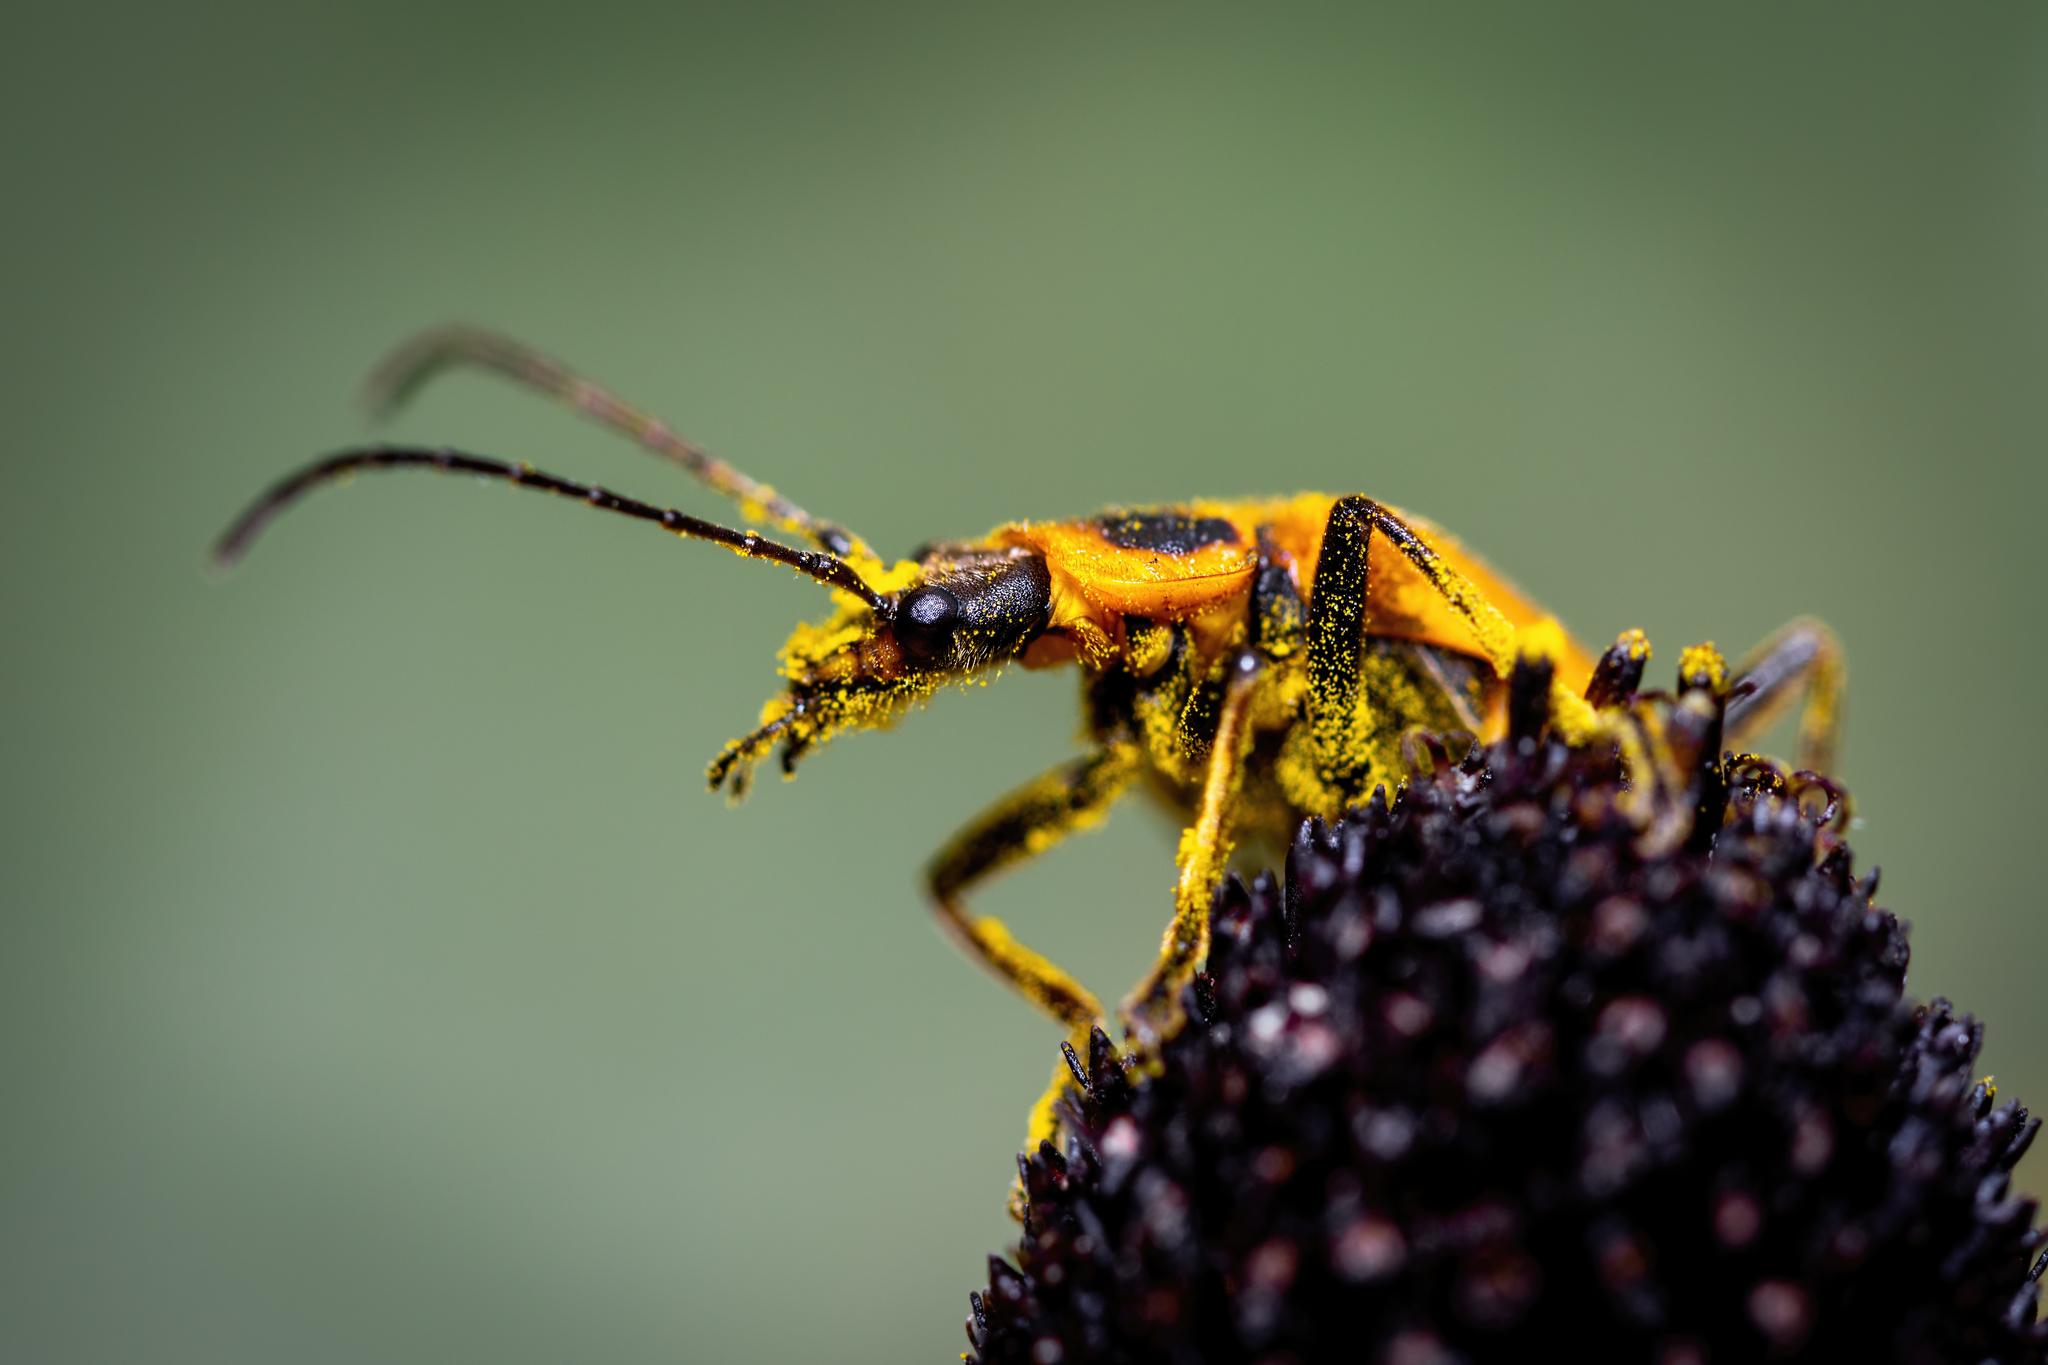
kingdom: Animalia
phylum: Arthropoda
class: Insecta
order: Coleoptera
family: Cantharidae
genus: Chauliognathus
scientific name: Chauliognathus pensylvanicus
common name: Goldenrod soldier beetle
